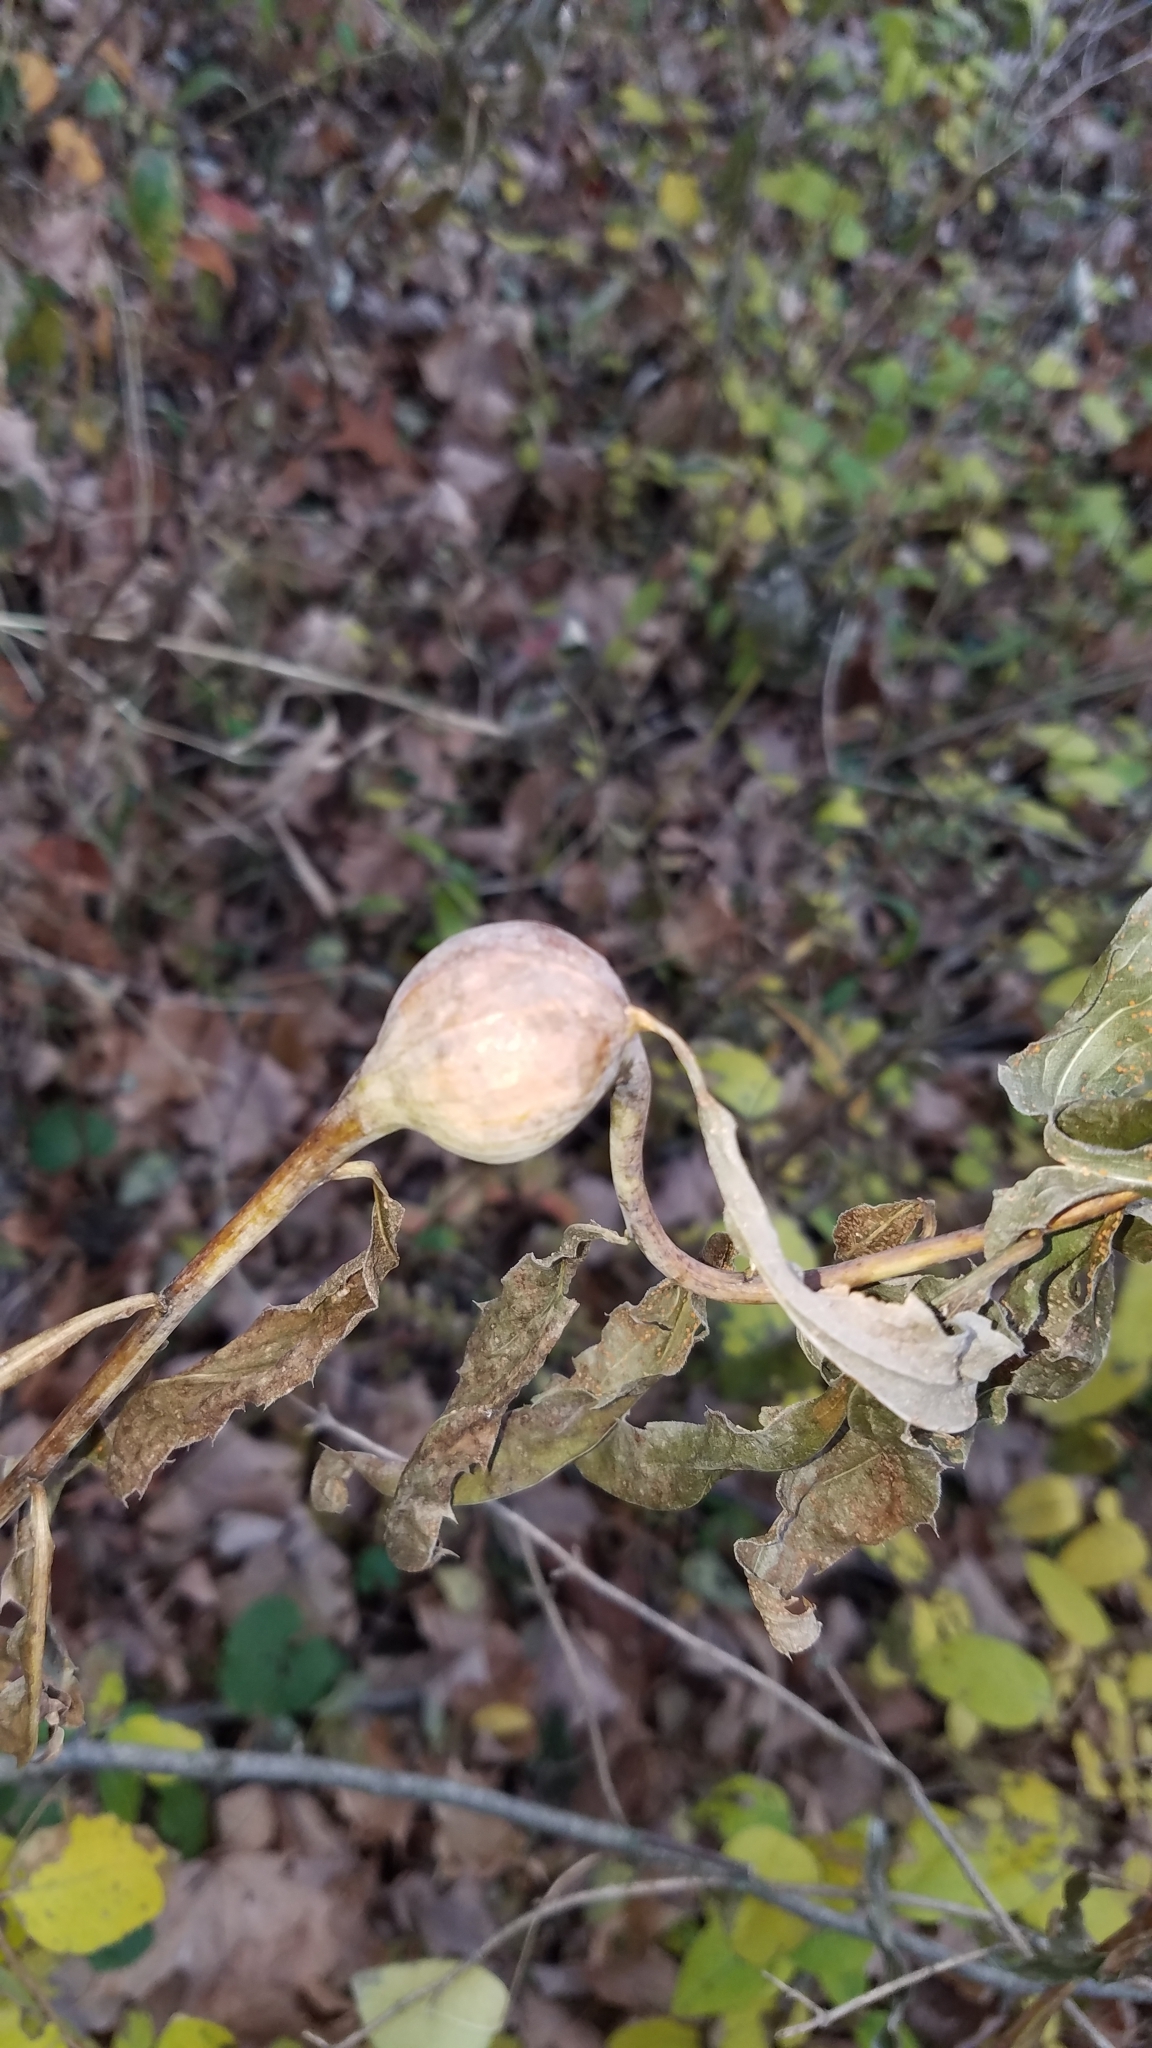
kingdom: Animalia
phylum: Arthropoda
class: Insecta
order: Diptera
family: Tephritidae
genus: Eurosta
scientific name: Eurosta solidaginis
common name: Goldenrod gall fly
